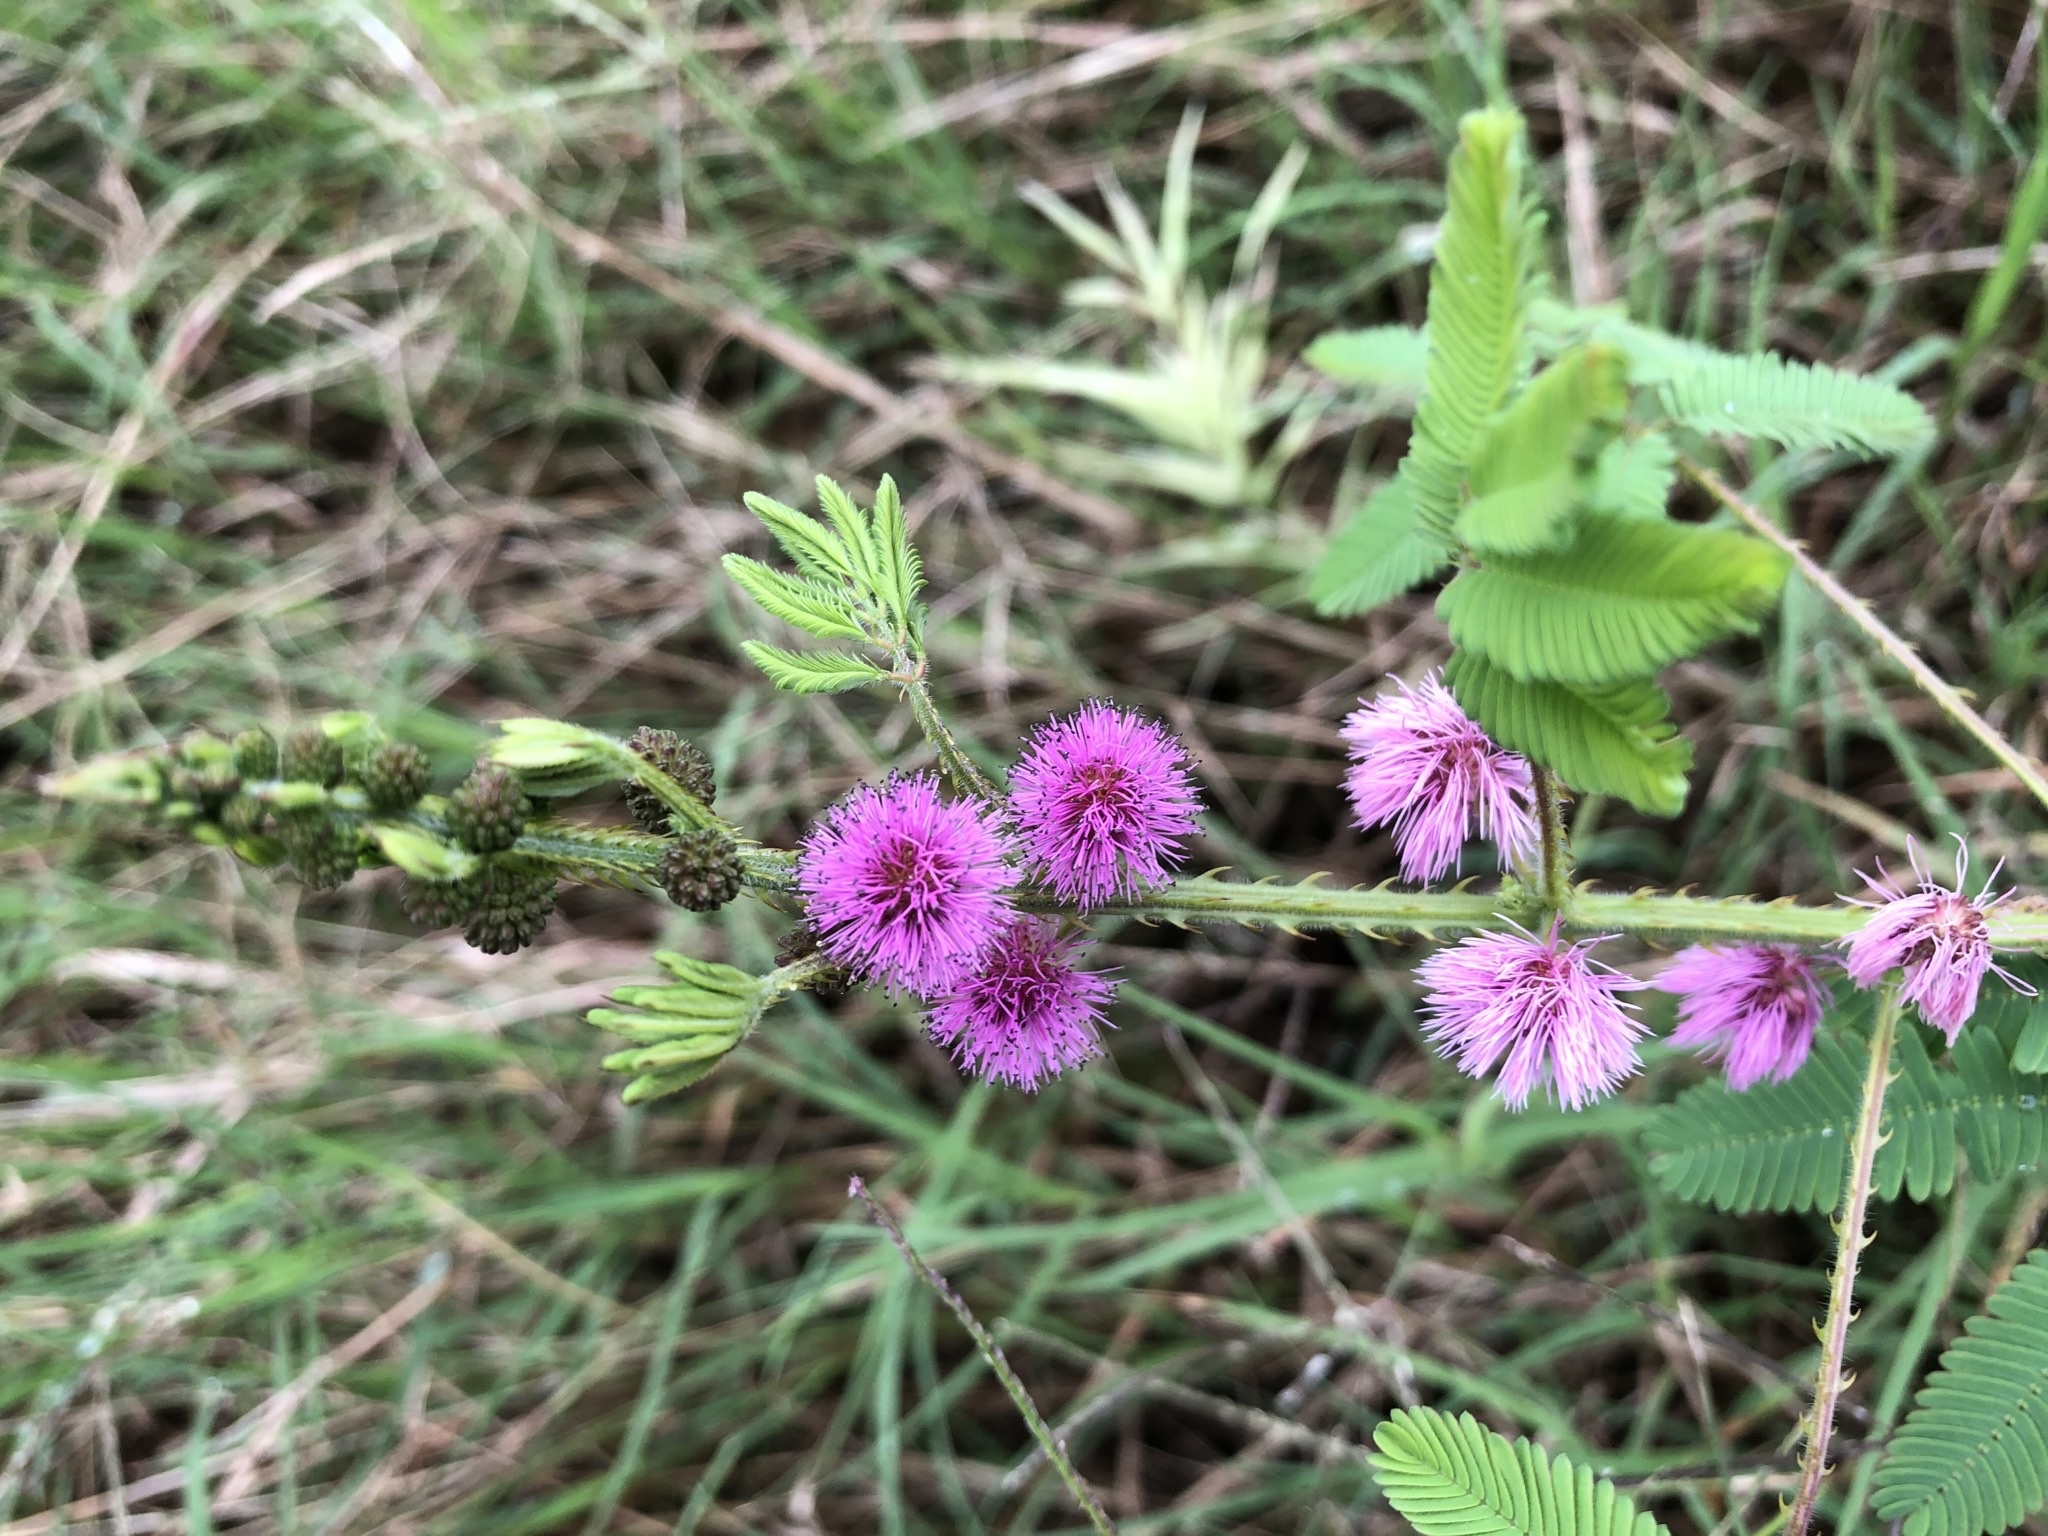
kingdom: Plantae
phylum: Tracheophyta
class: Magnoliopsida
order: Fabales
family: Fabaceae
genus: Mimosa
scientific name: Mimosa diplotricha
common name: Giant sensitive-plant
